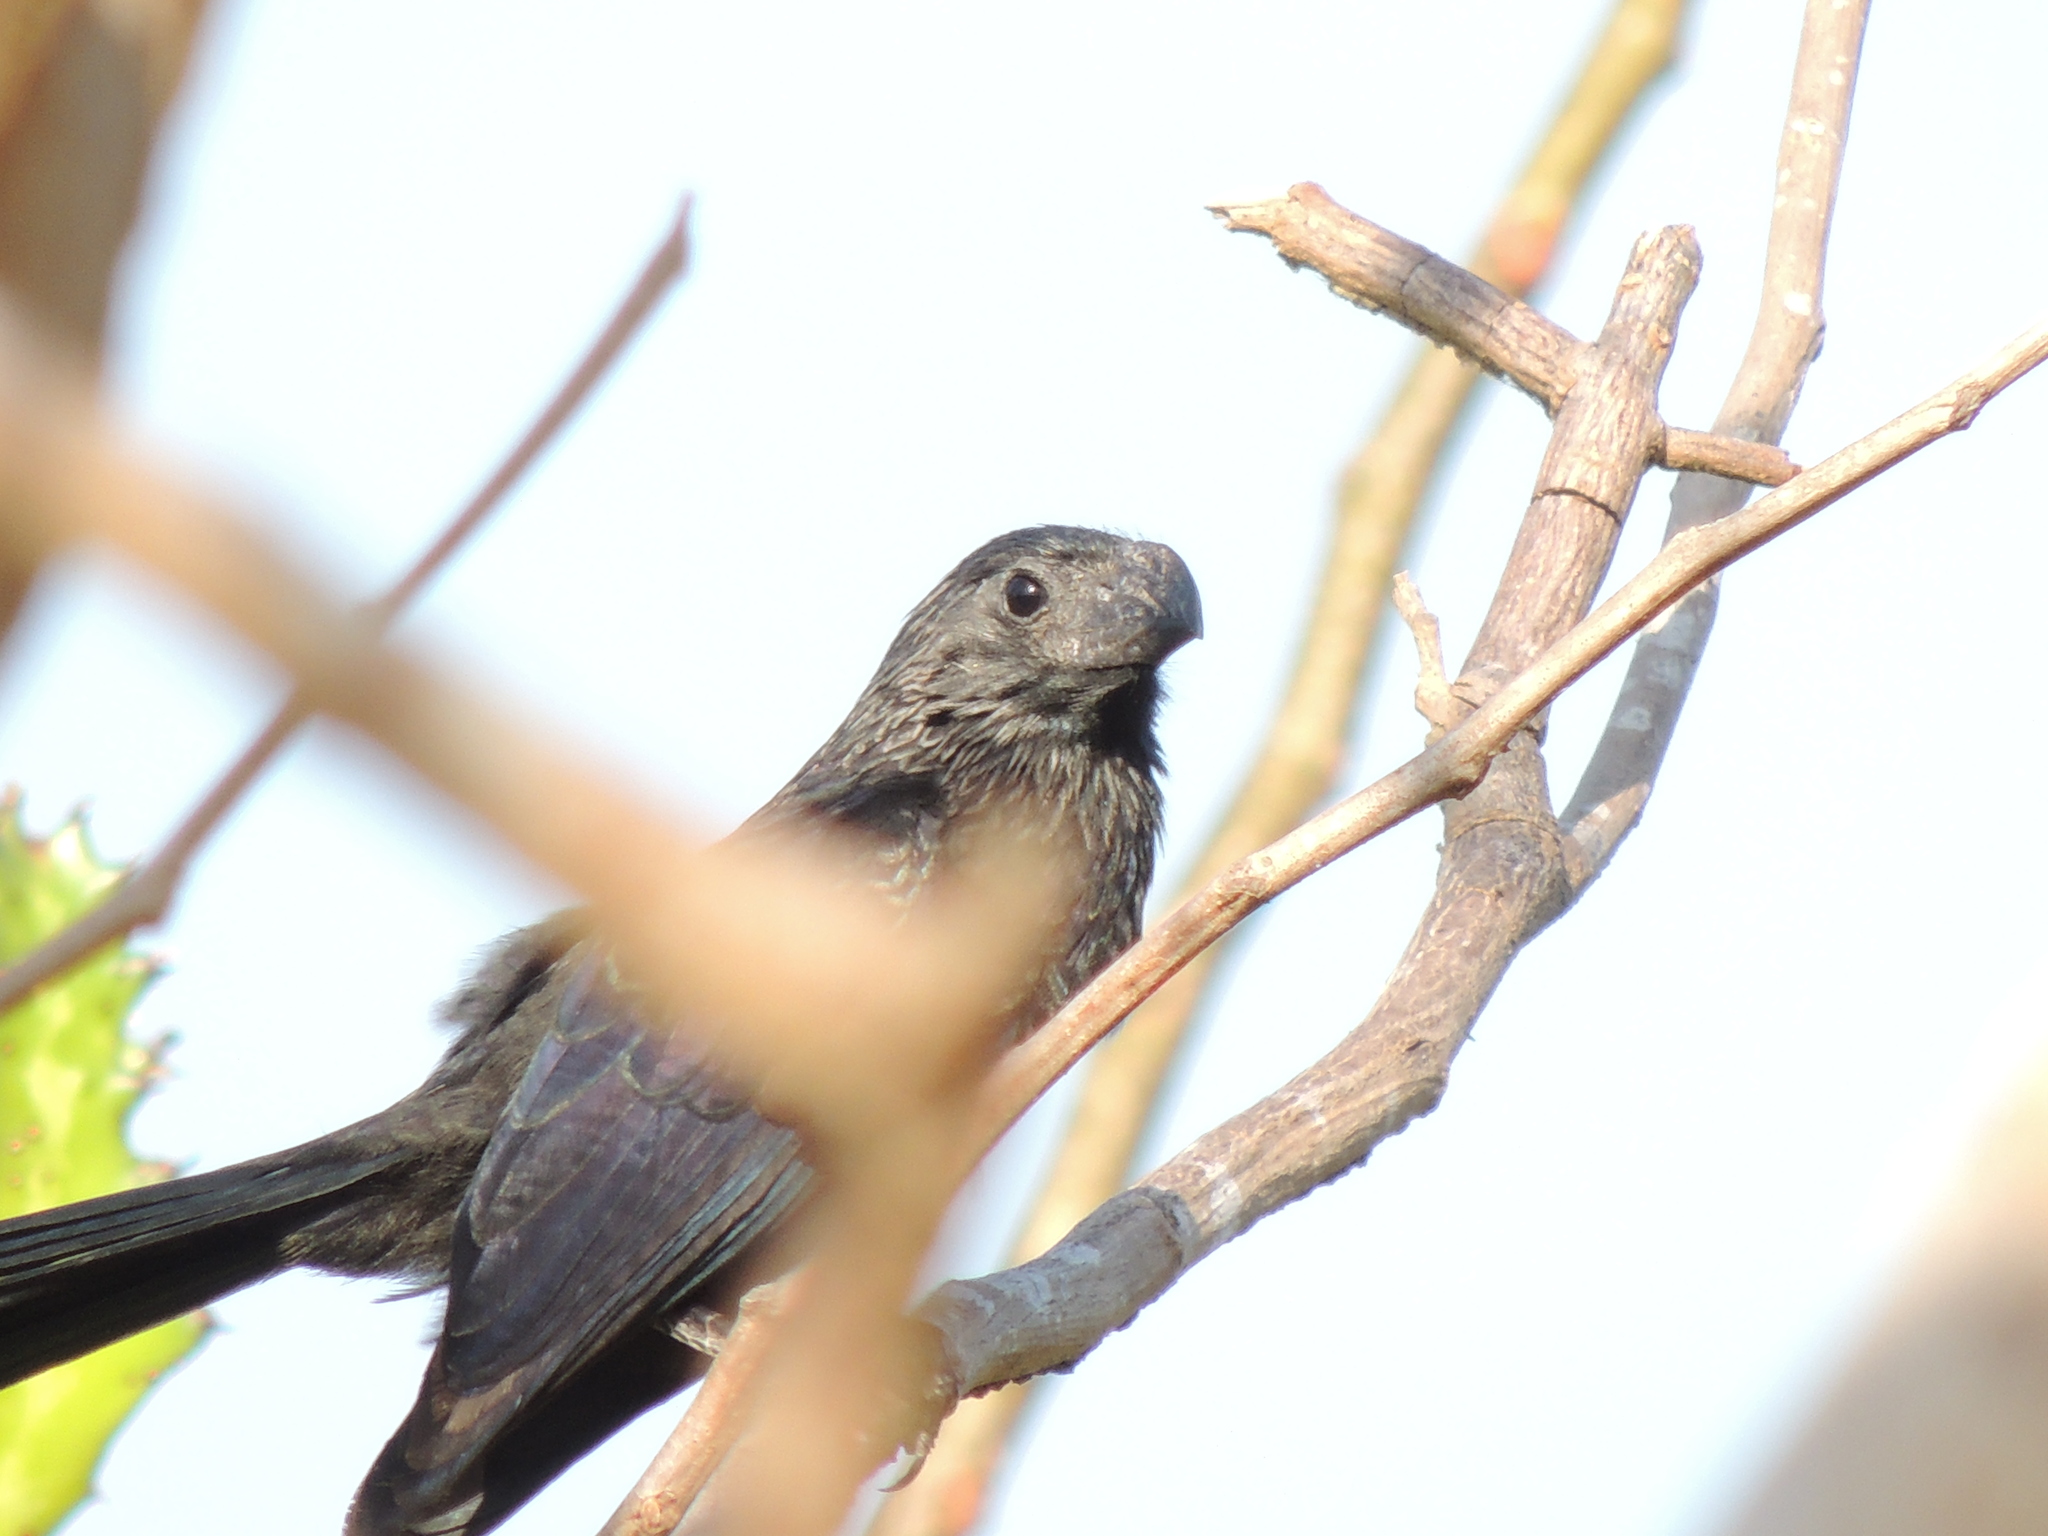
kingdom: Animalia
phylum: Chordata
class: Aves
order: Cuculiformes
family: Cuculidae
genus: Crotophaga
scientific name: Crotophaga sulcirostris
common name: Groove-billed ani
